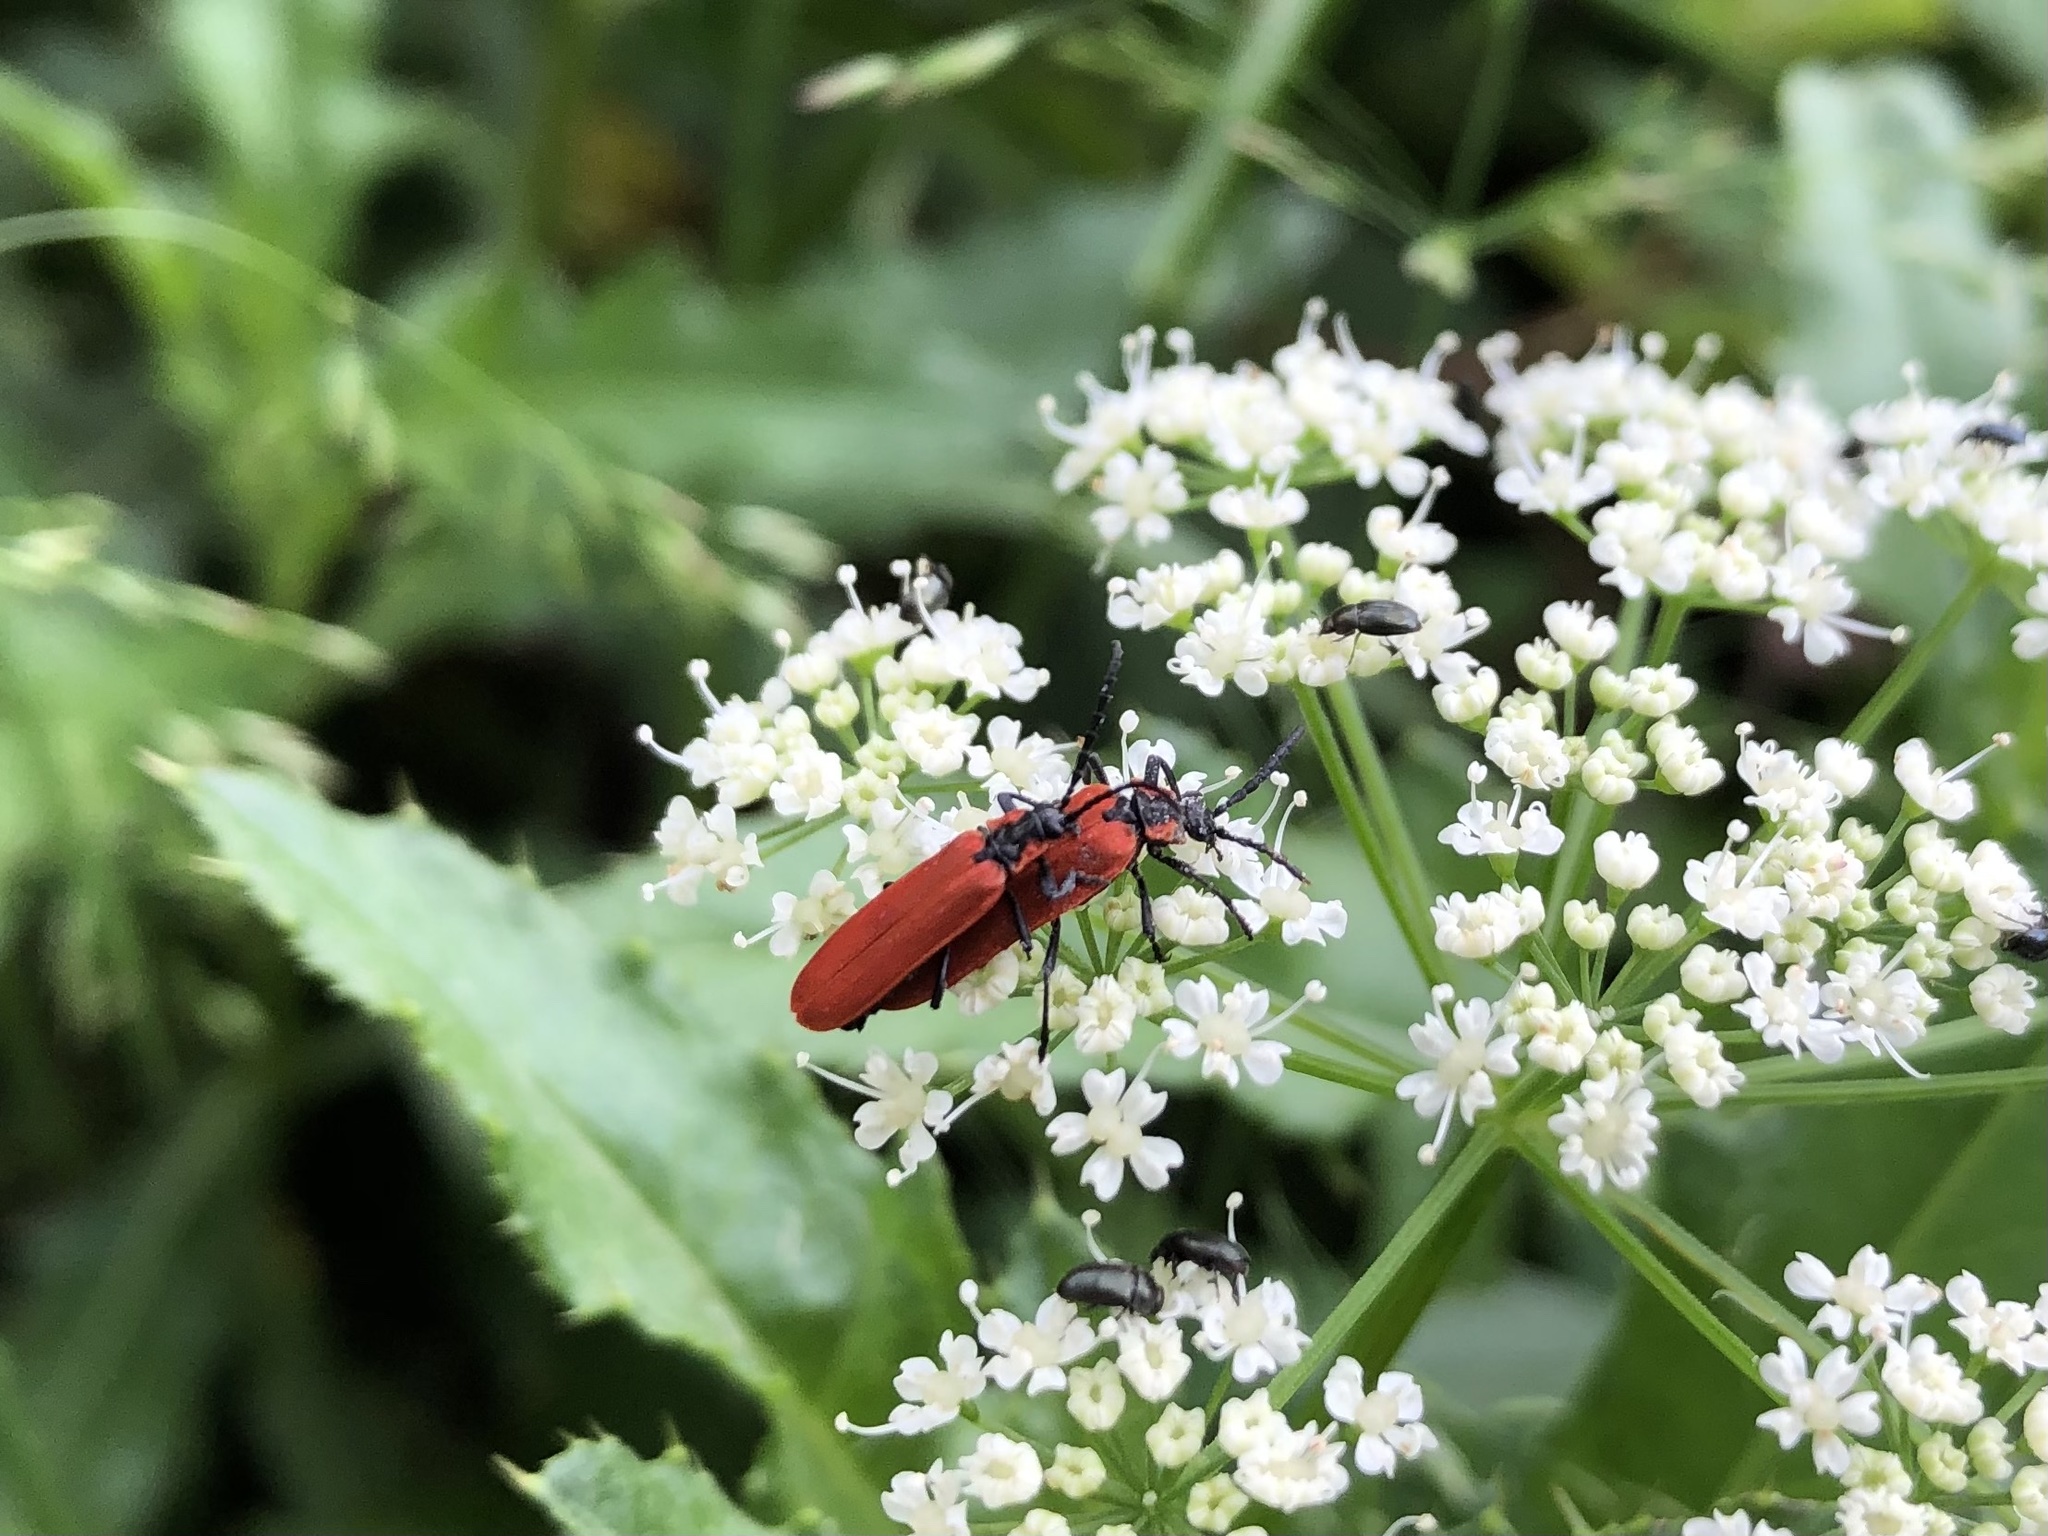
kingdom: Animalia
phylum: Arthropoda
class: Insecta
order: Coleoptera
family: Lycidae
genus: Lygistopterus
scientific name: Lygistopterus sanguineus
